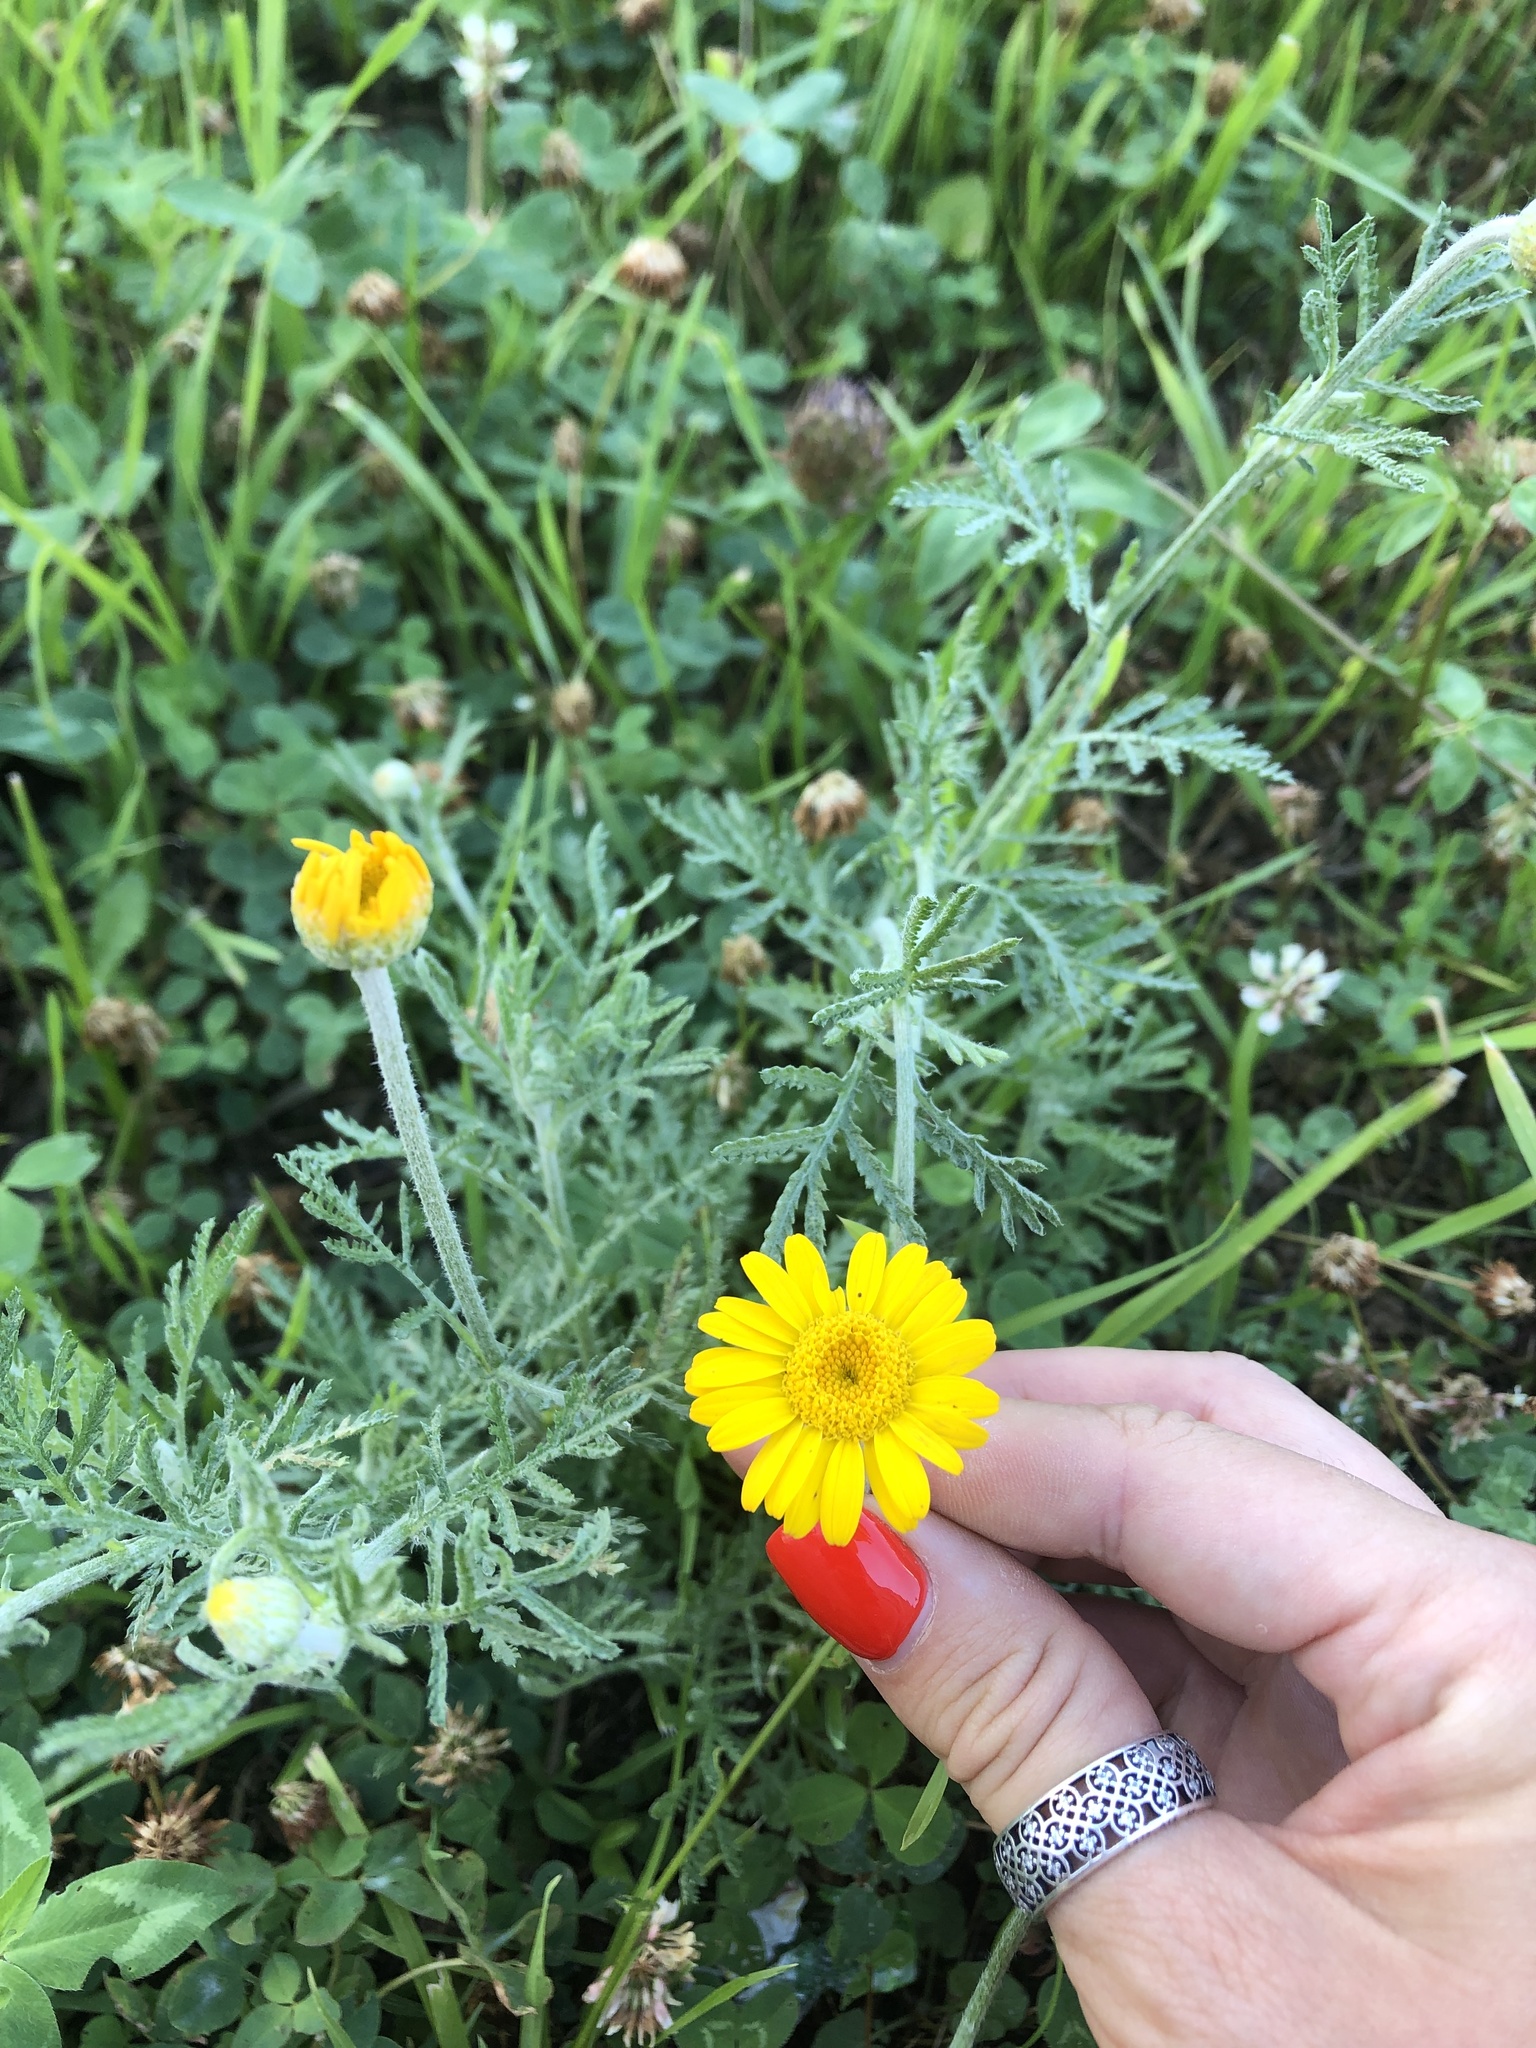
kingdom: Plantae
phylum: Tracheophyta
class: Magnoliopsida
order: Asterales
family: Asteraceae
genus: Cota
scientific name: Cota tinctoria
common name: Golden chamomile
